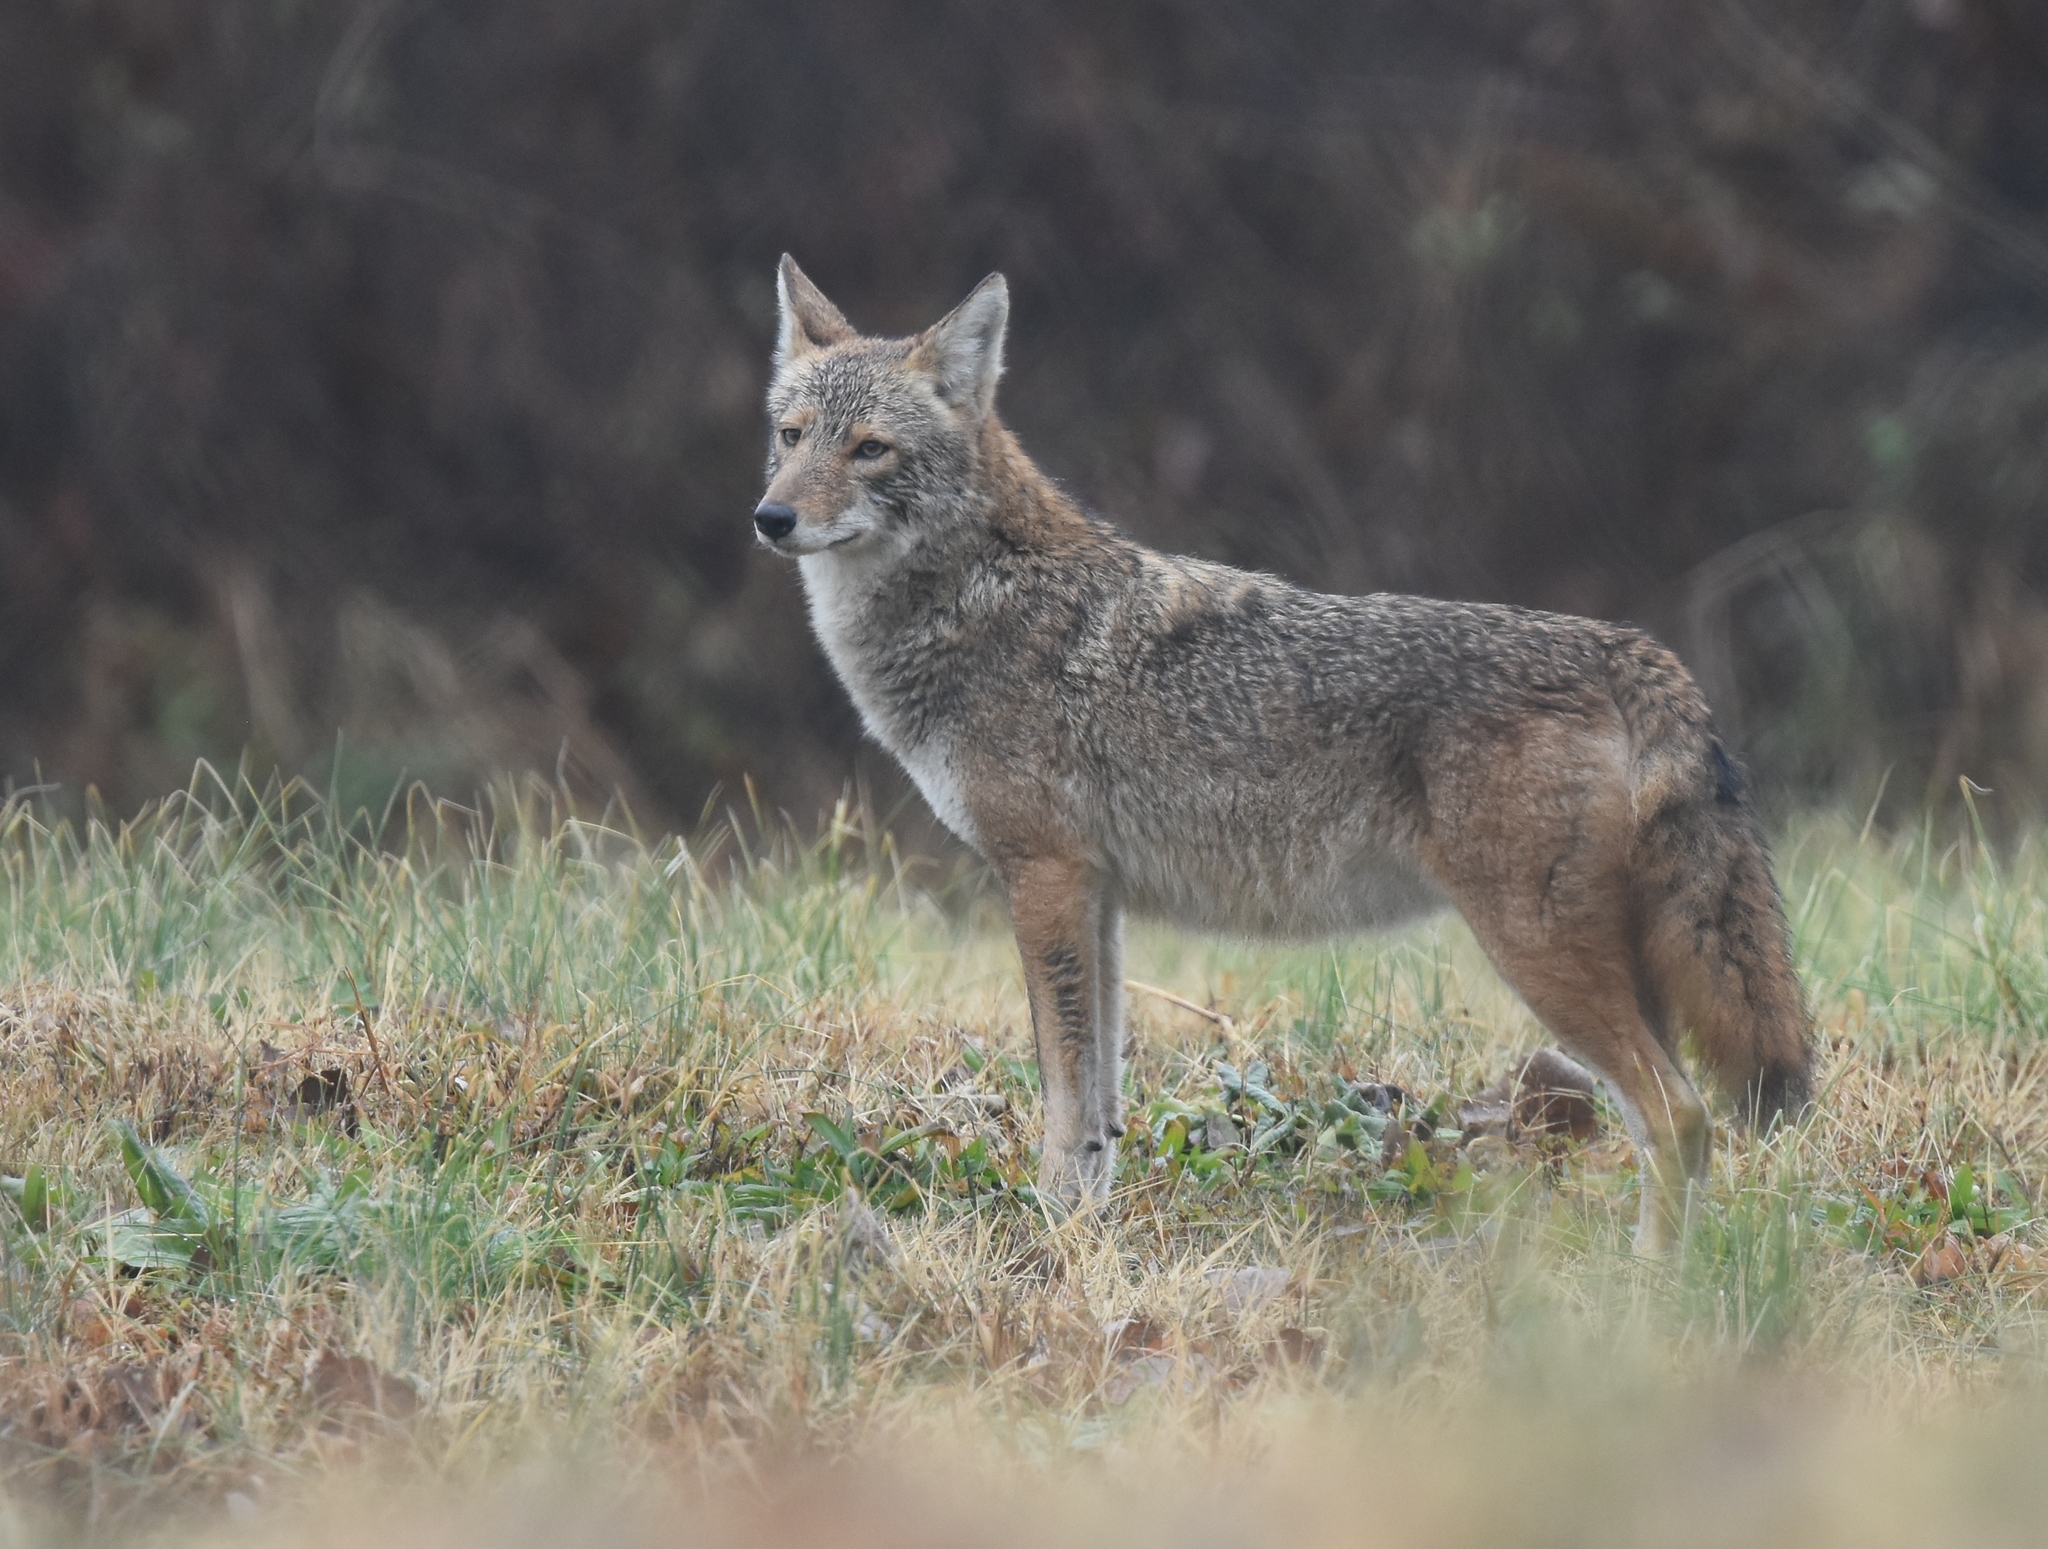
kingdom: Animalia
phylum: Chordata
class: Mammalia
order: Carnivora
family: Canidae
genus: Canis
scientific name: Canis latrans
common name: Coyote
